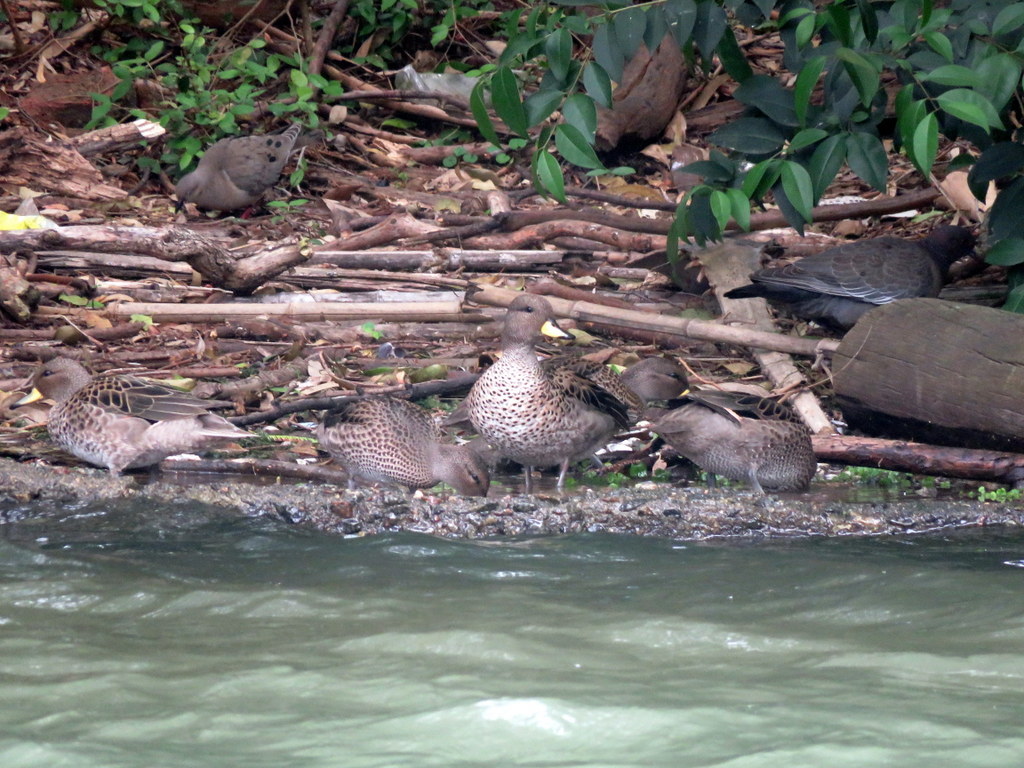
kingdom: Animalia
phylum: Chordata
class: Aves
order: Anseriformes
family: Anatidae
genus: Anas
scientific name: Anas flavirostris
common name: Yellow-billed teal
